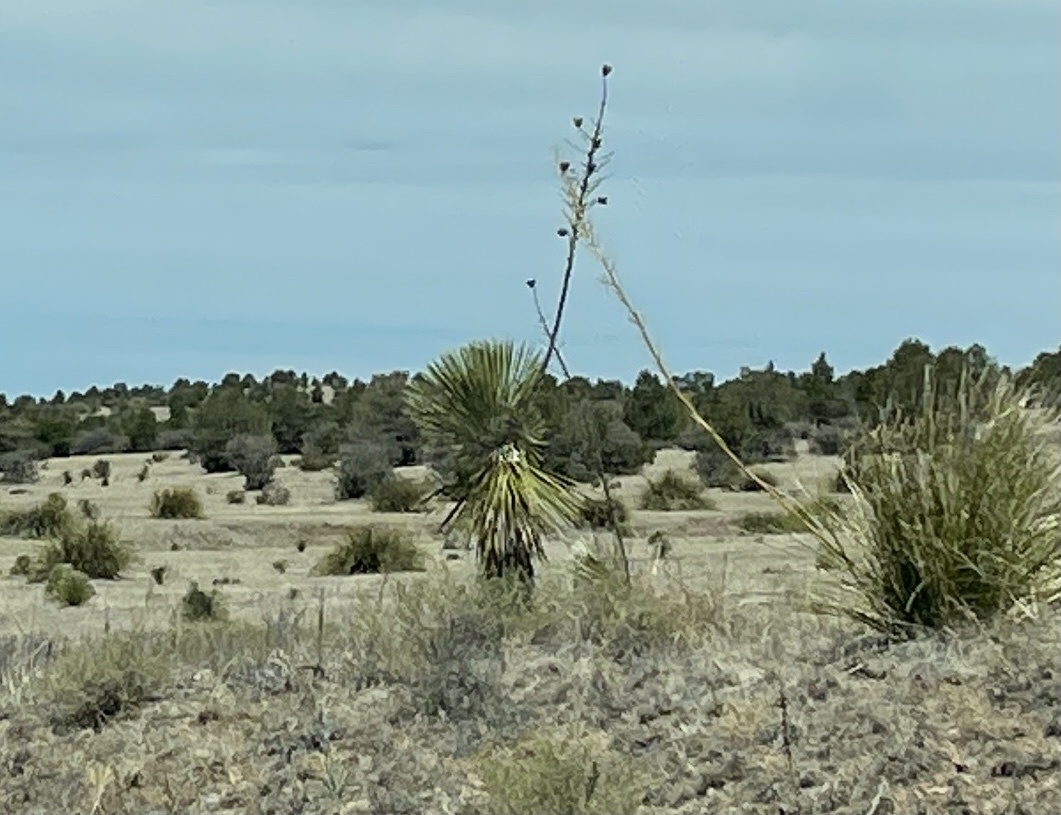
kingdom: Plantae
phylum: Tracheophyta
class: Liliopsida
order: Asparagales
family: Asparagaceae
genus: Yucca
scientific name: Yucca elata
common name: Palmella
